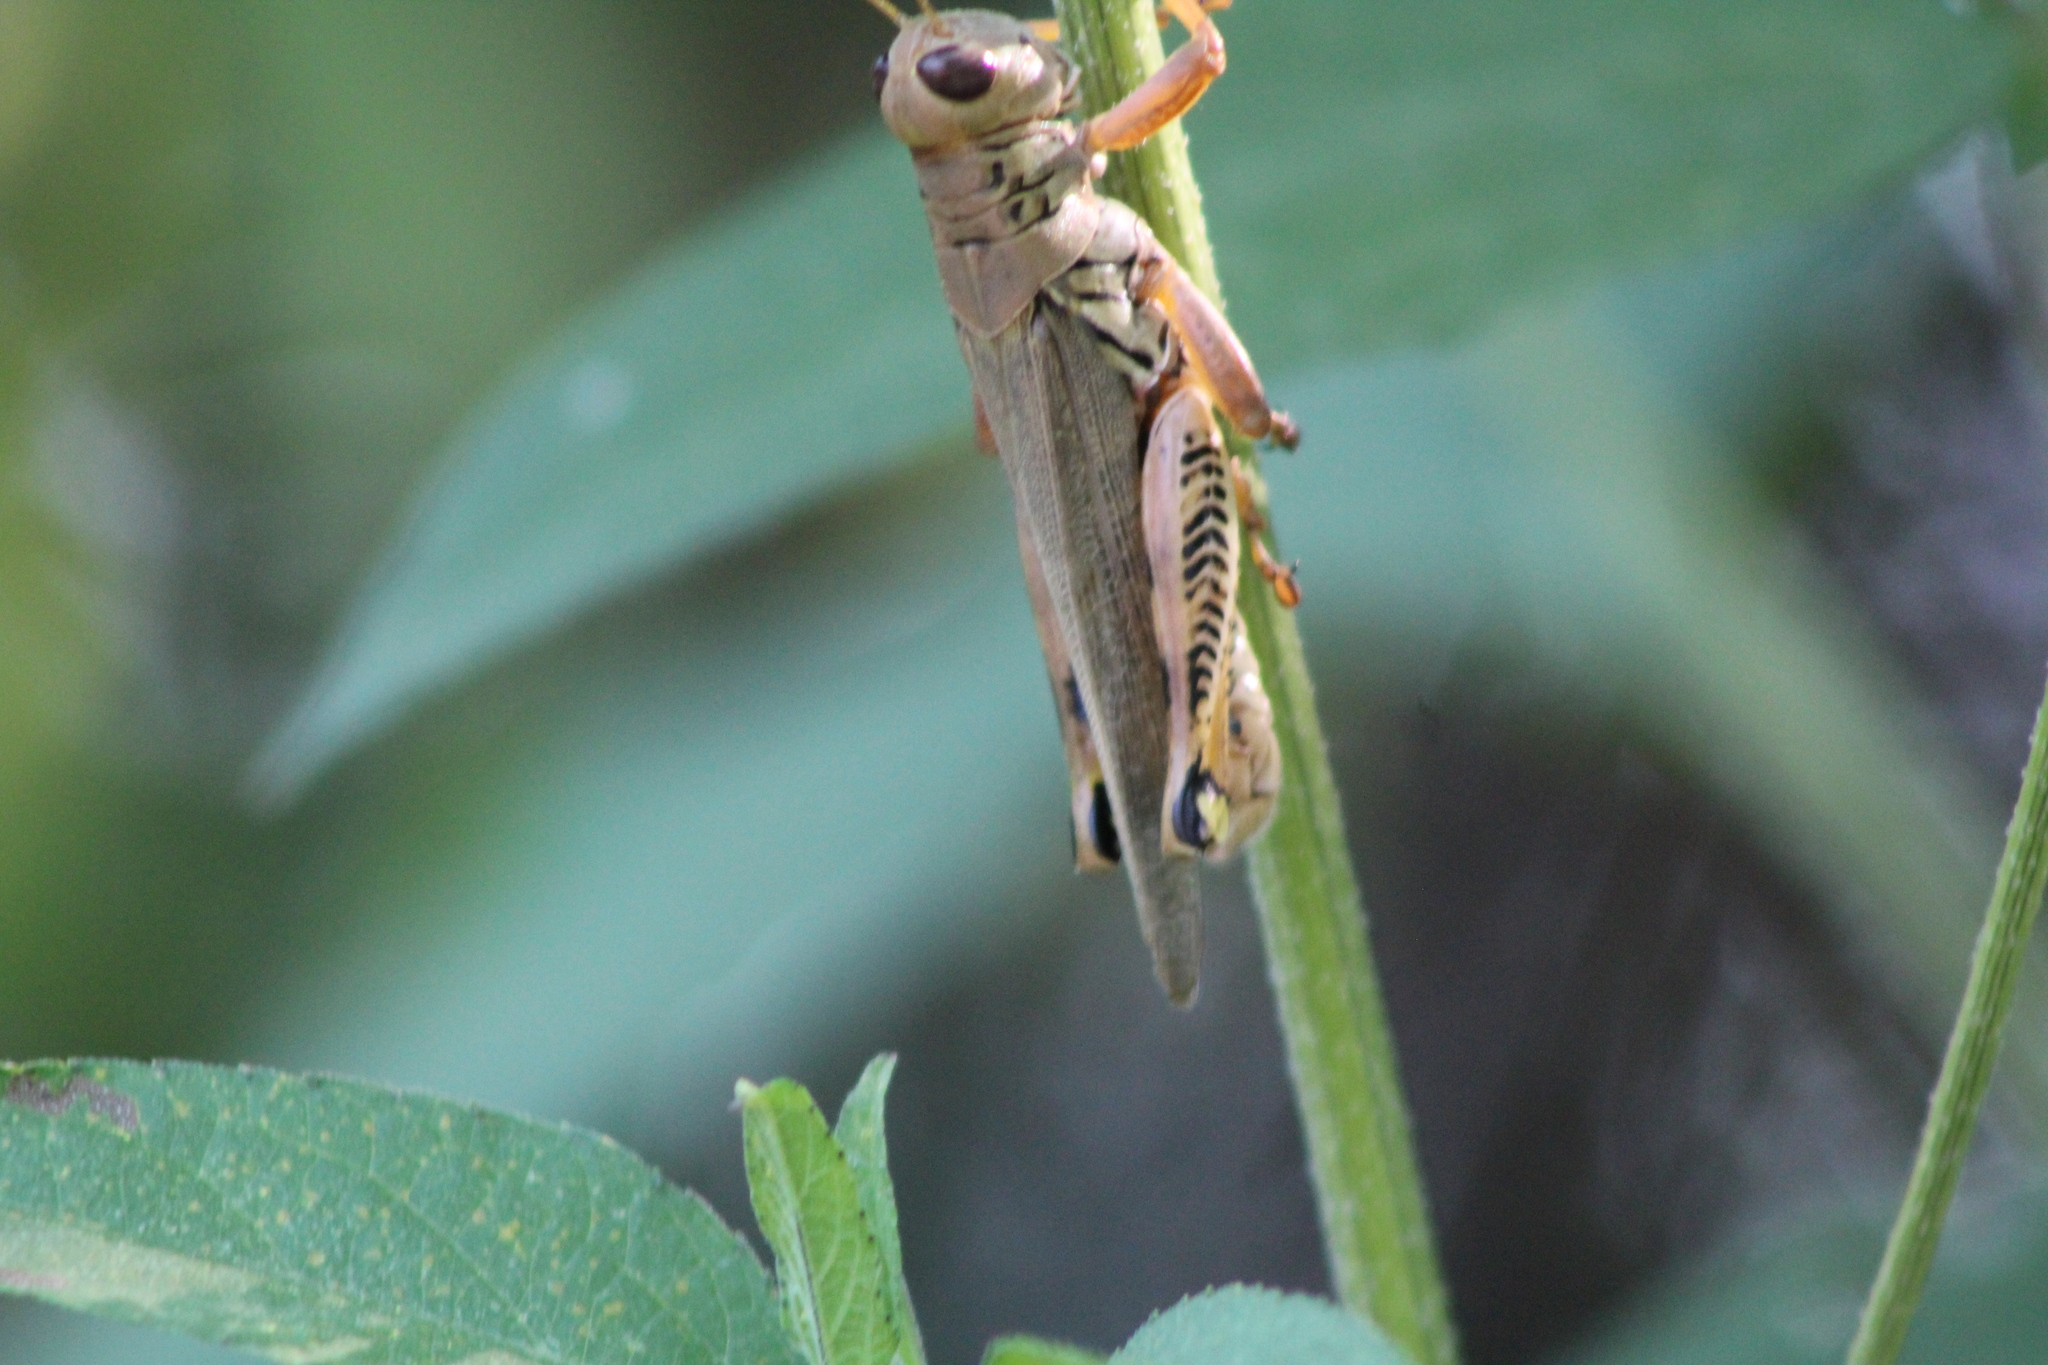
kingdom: Animalia
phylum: Arthropoda
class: Insecta
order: Orthoptera
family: Acrididae
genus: Melanoplus
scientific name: Melanoplus differentialis
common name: Differential grasshopper
